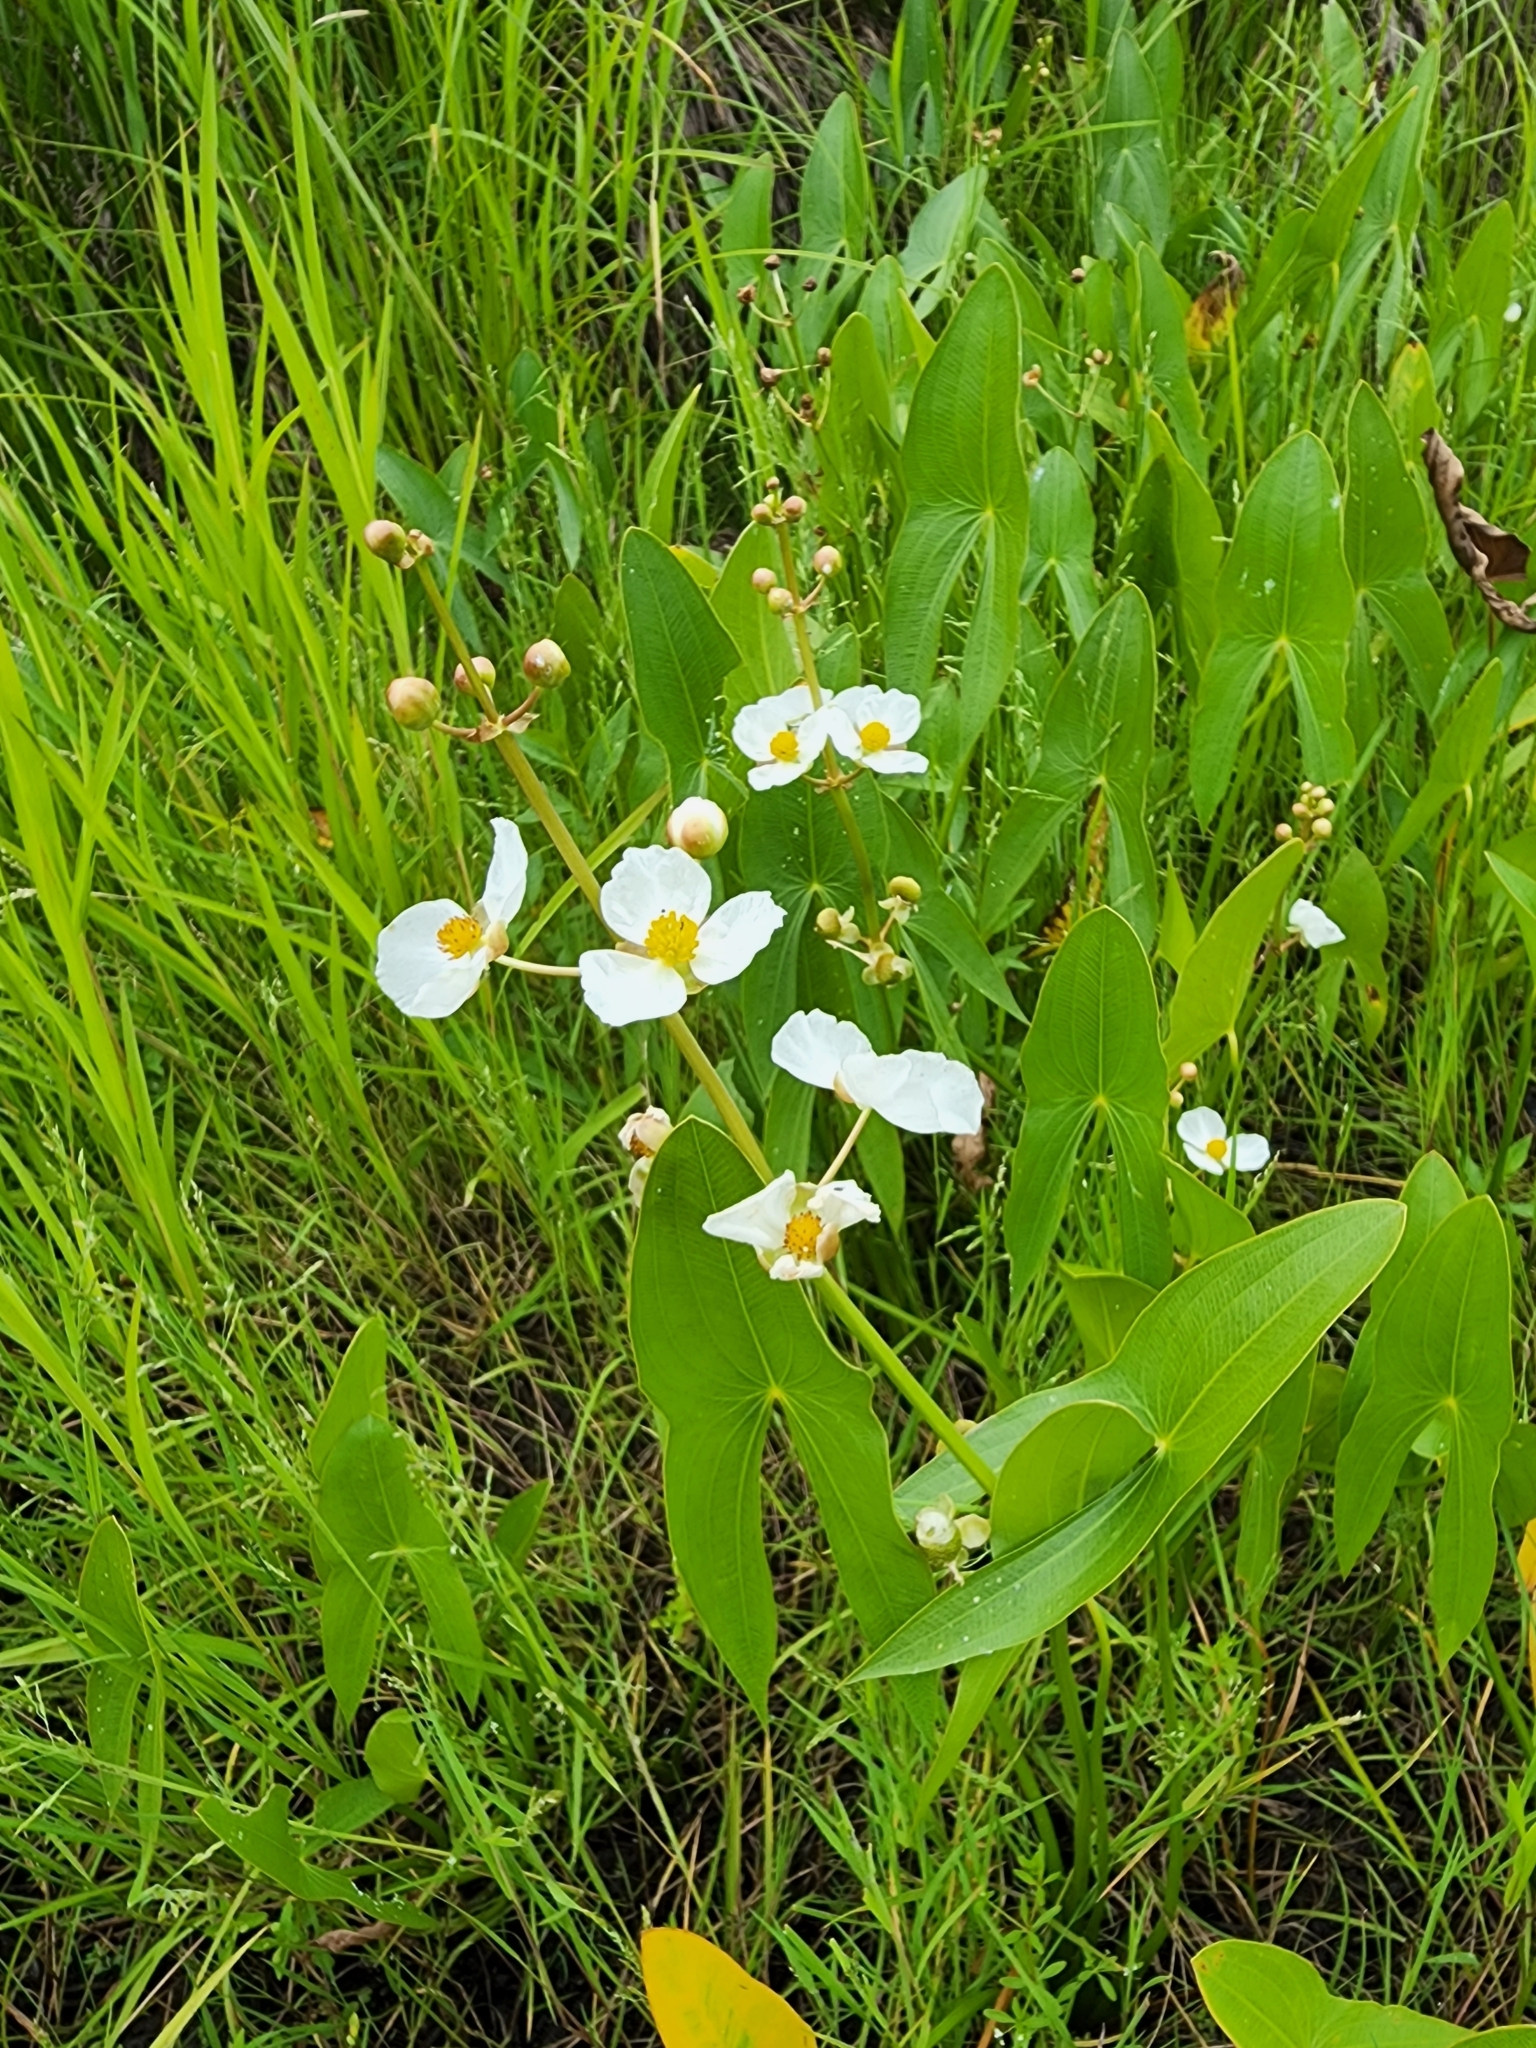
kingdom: Plantae
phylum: Tracheophyta
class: Liliopsida
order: Alismatales
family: Alismataceae
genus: Sagittaria
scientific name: Sagittaria latifolia
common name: Duck-potato
